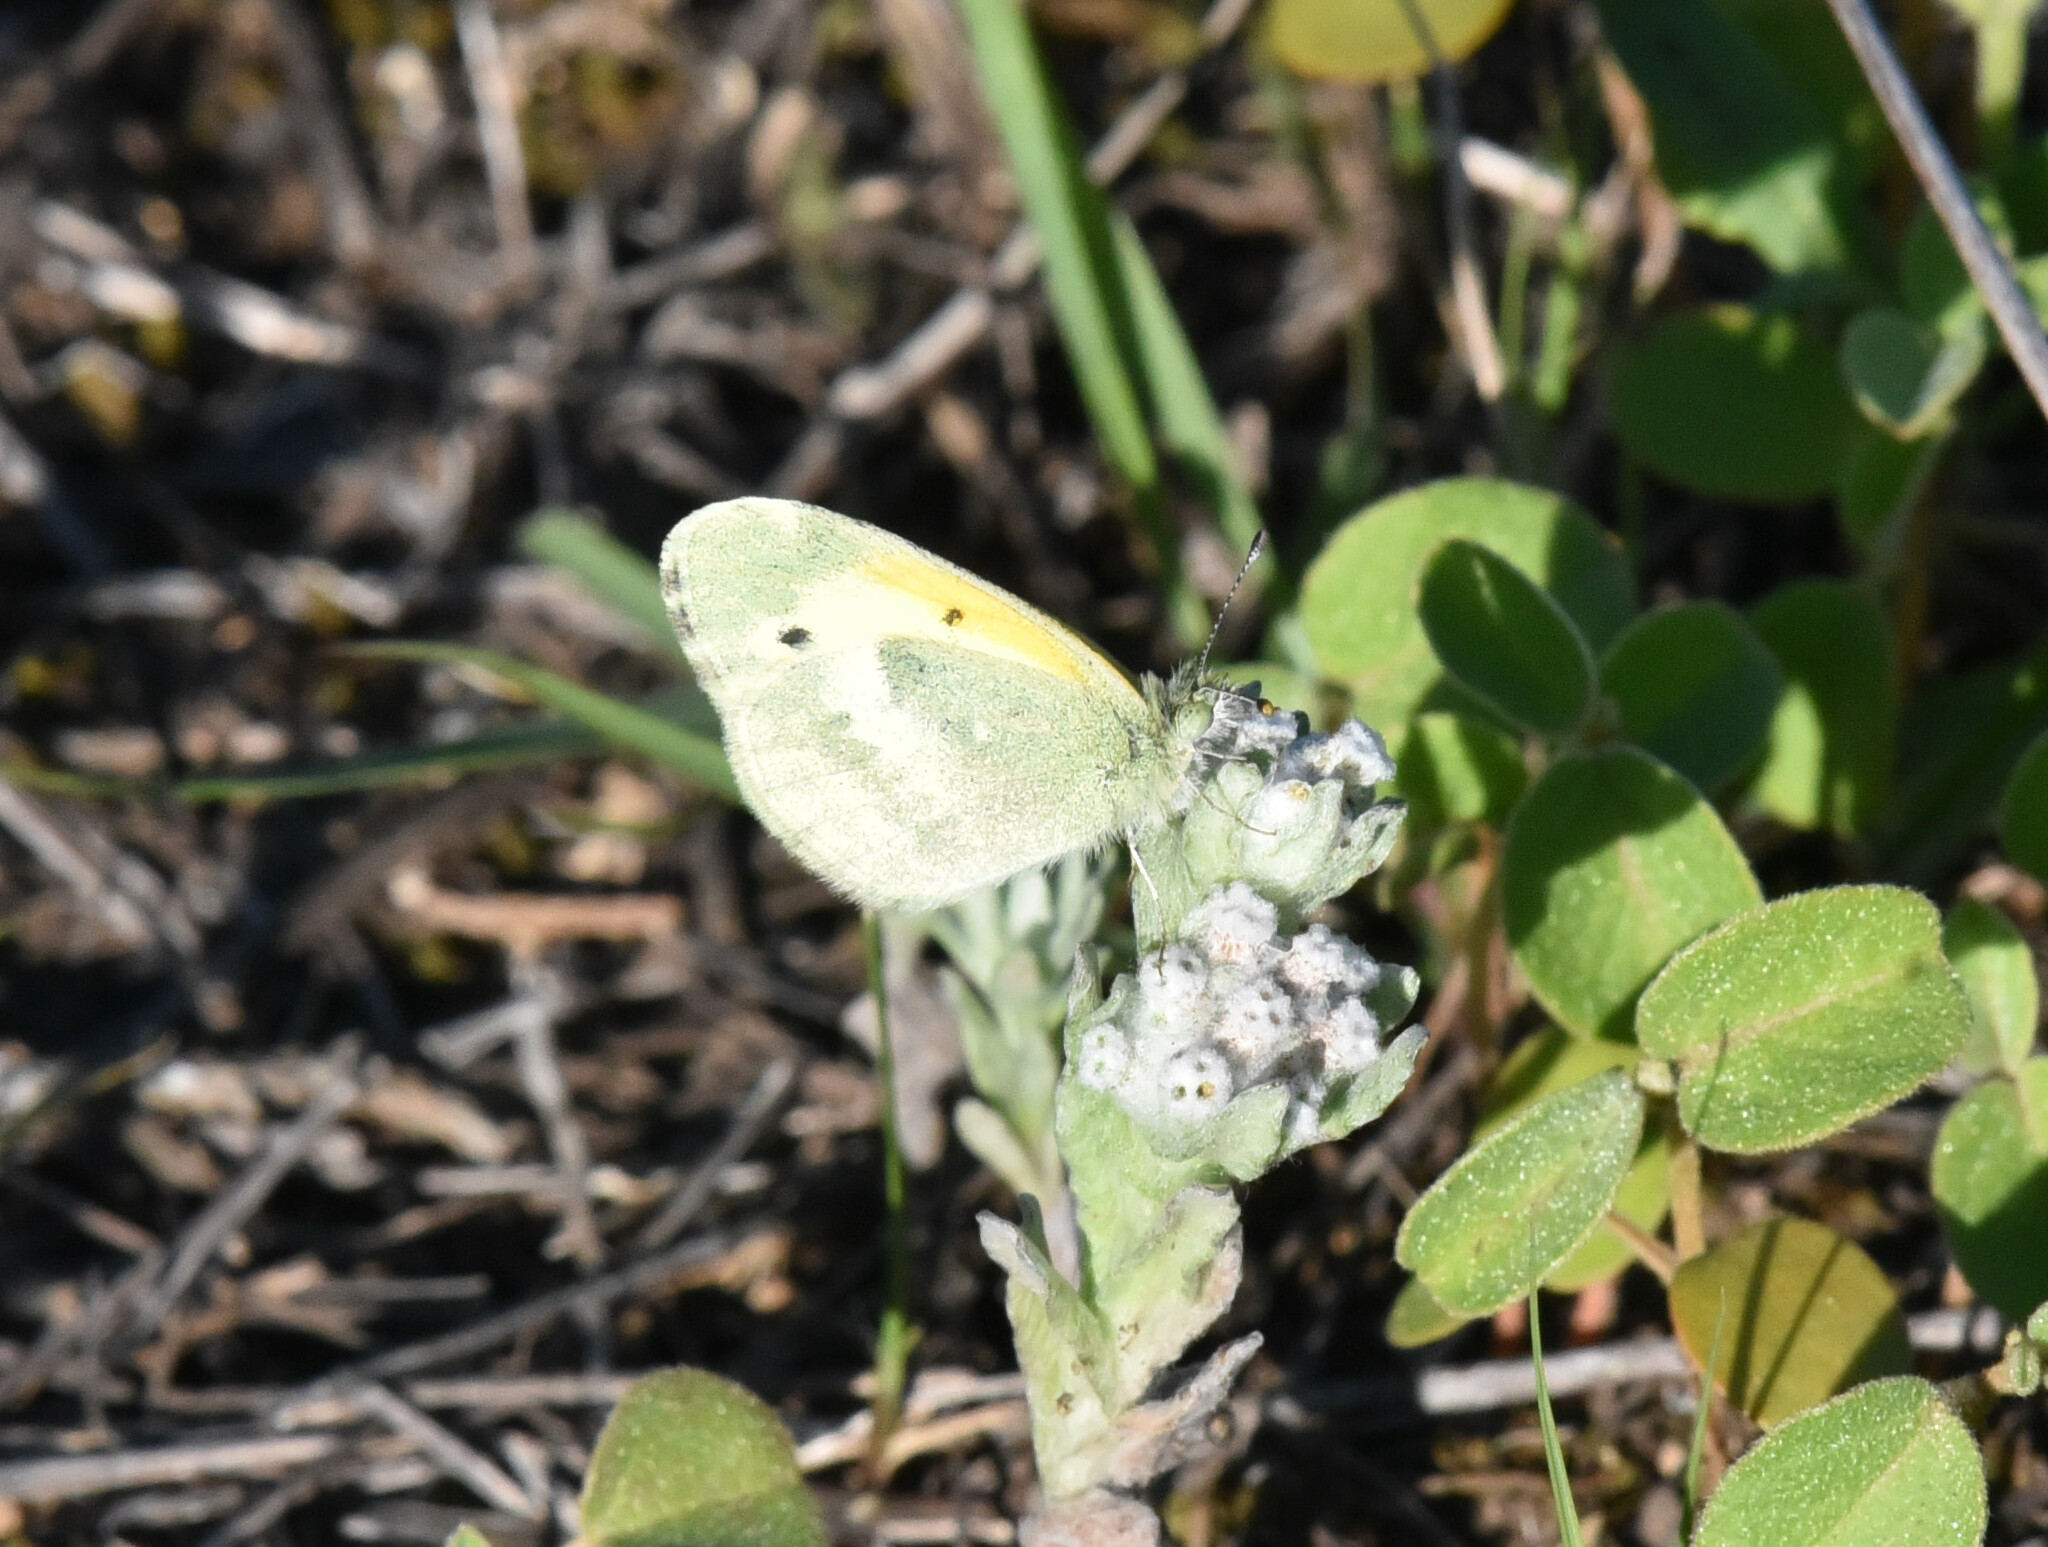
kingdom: Animalia
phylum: Arthropoda
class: Insecta
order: Lepidoptera
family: Pieridae
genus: Nathalis
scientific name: Nathalis iole
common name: Dainty sulphur
